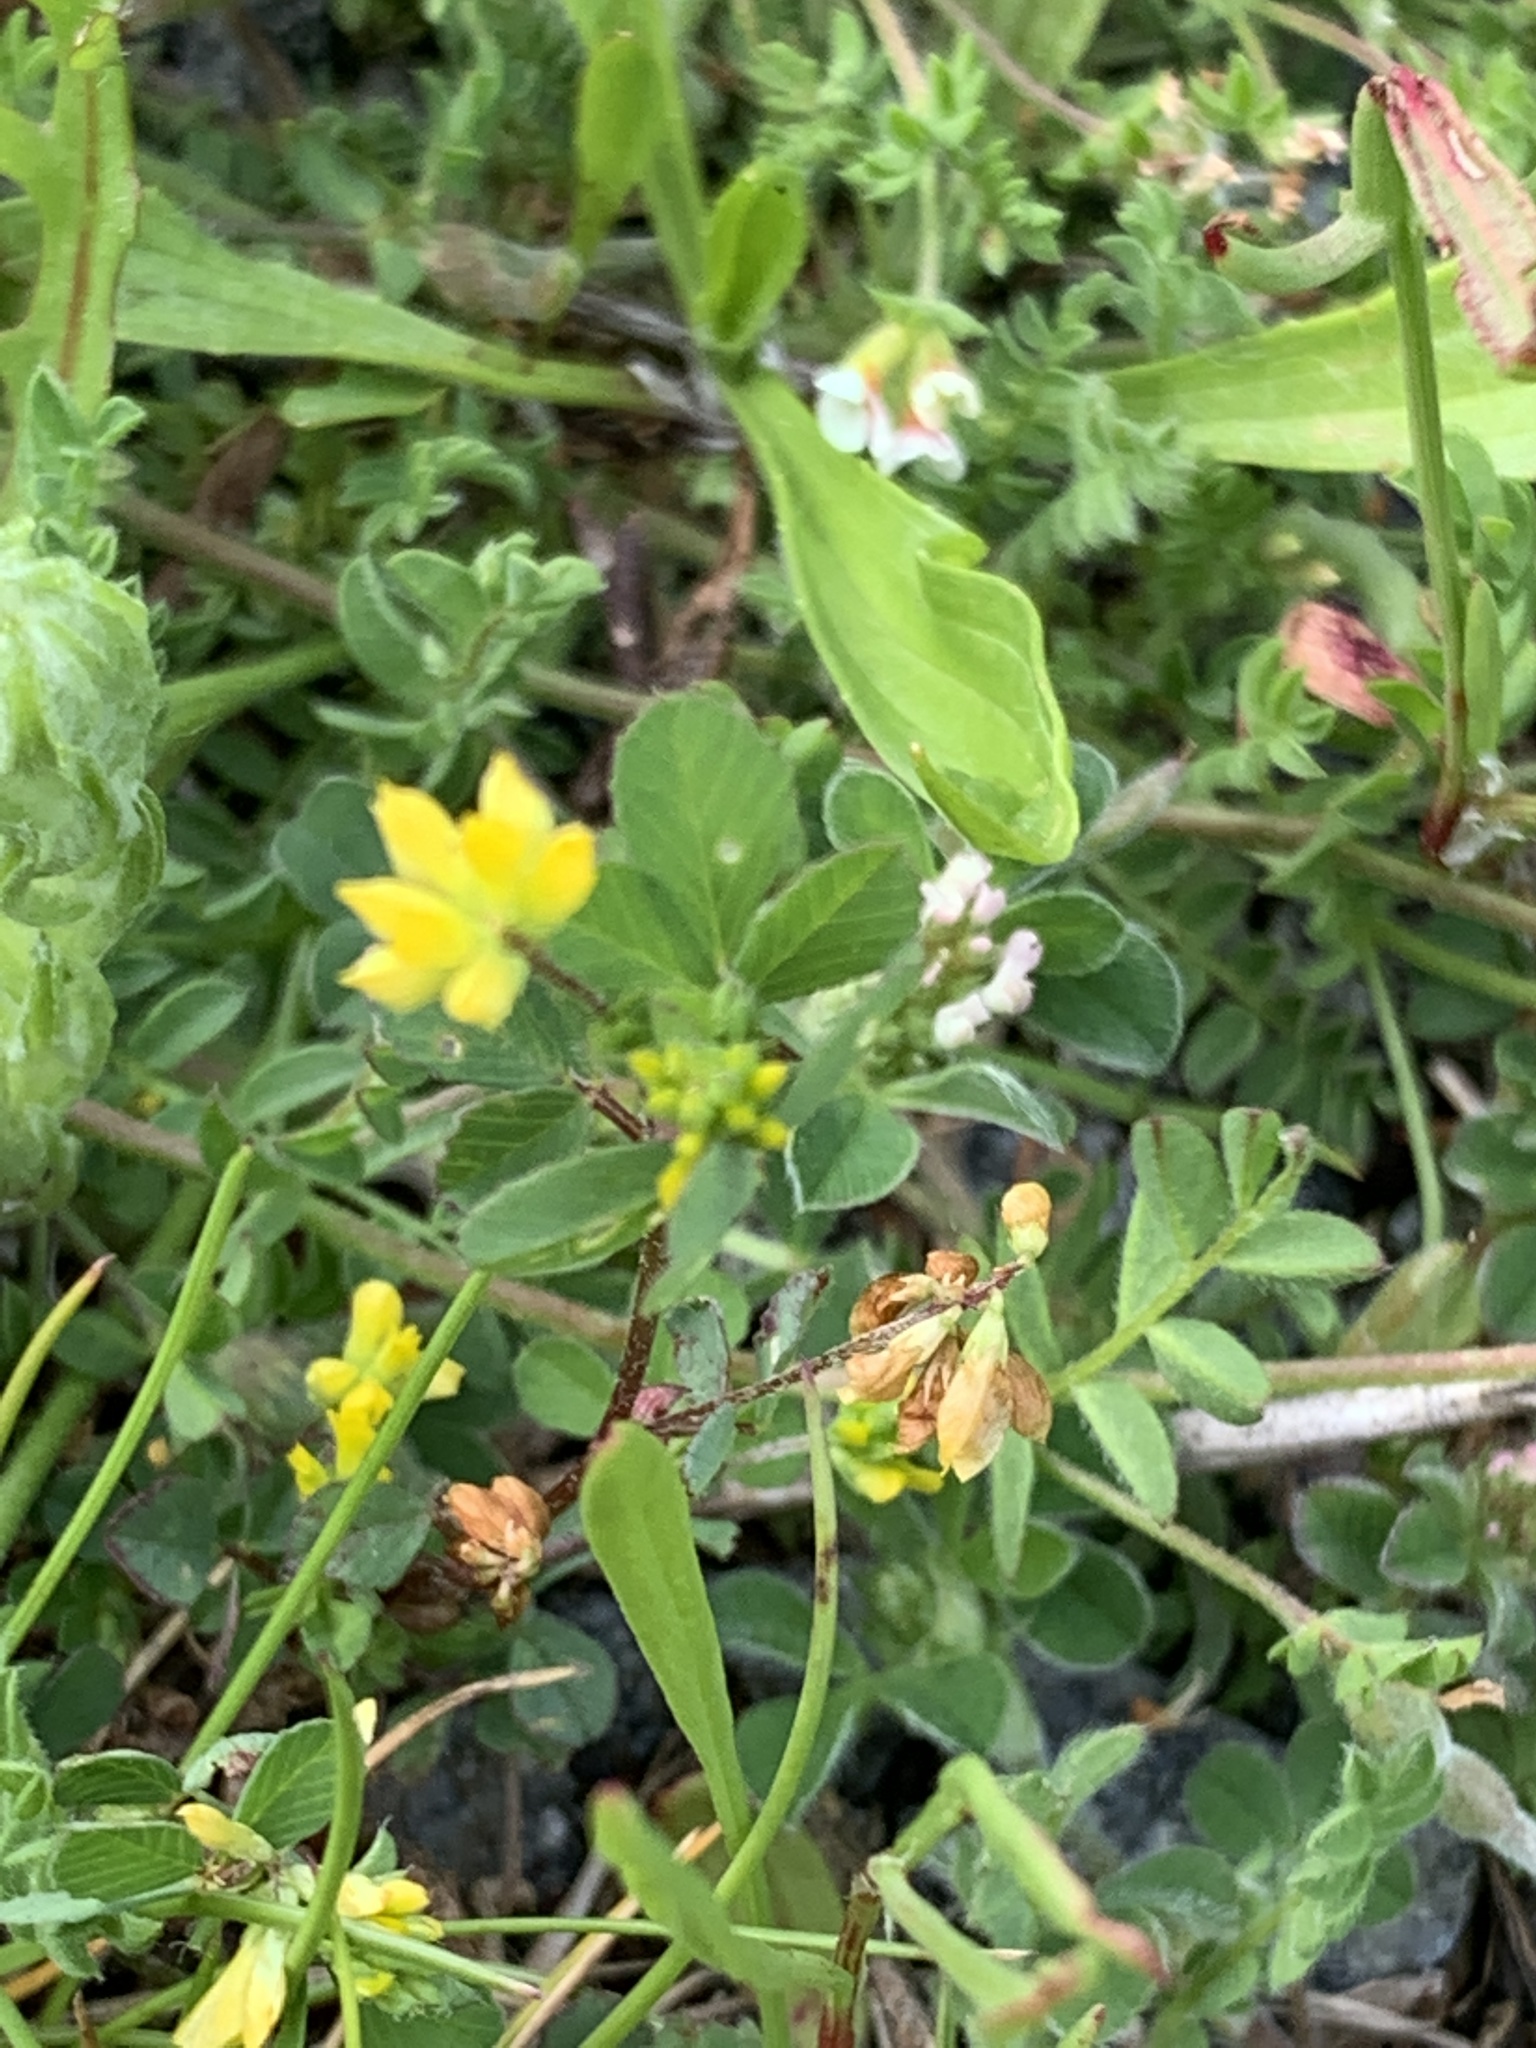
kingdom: Plantae
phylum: Tracheophyta
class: Magnoliopsida
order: Fabales
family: Fabaceae
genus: Trifolium
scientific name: Trifolium dubium
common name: Suckling clover
